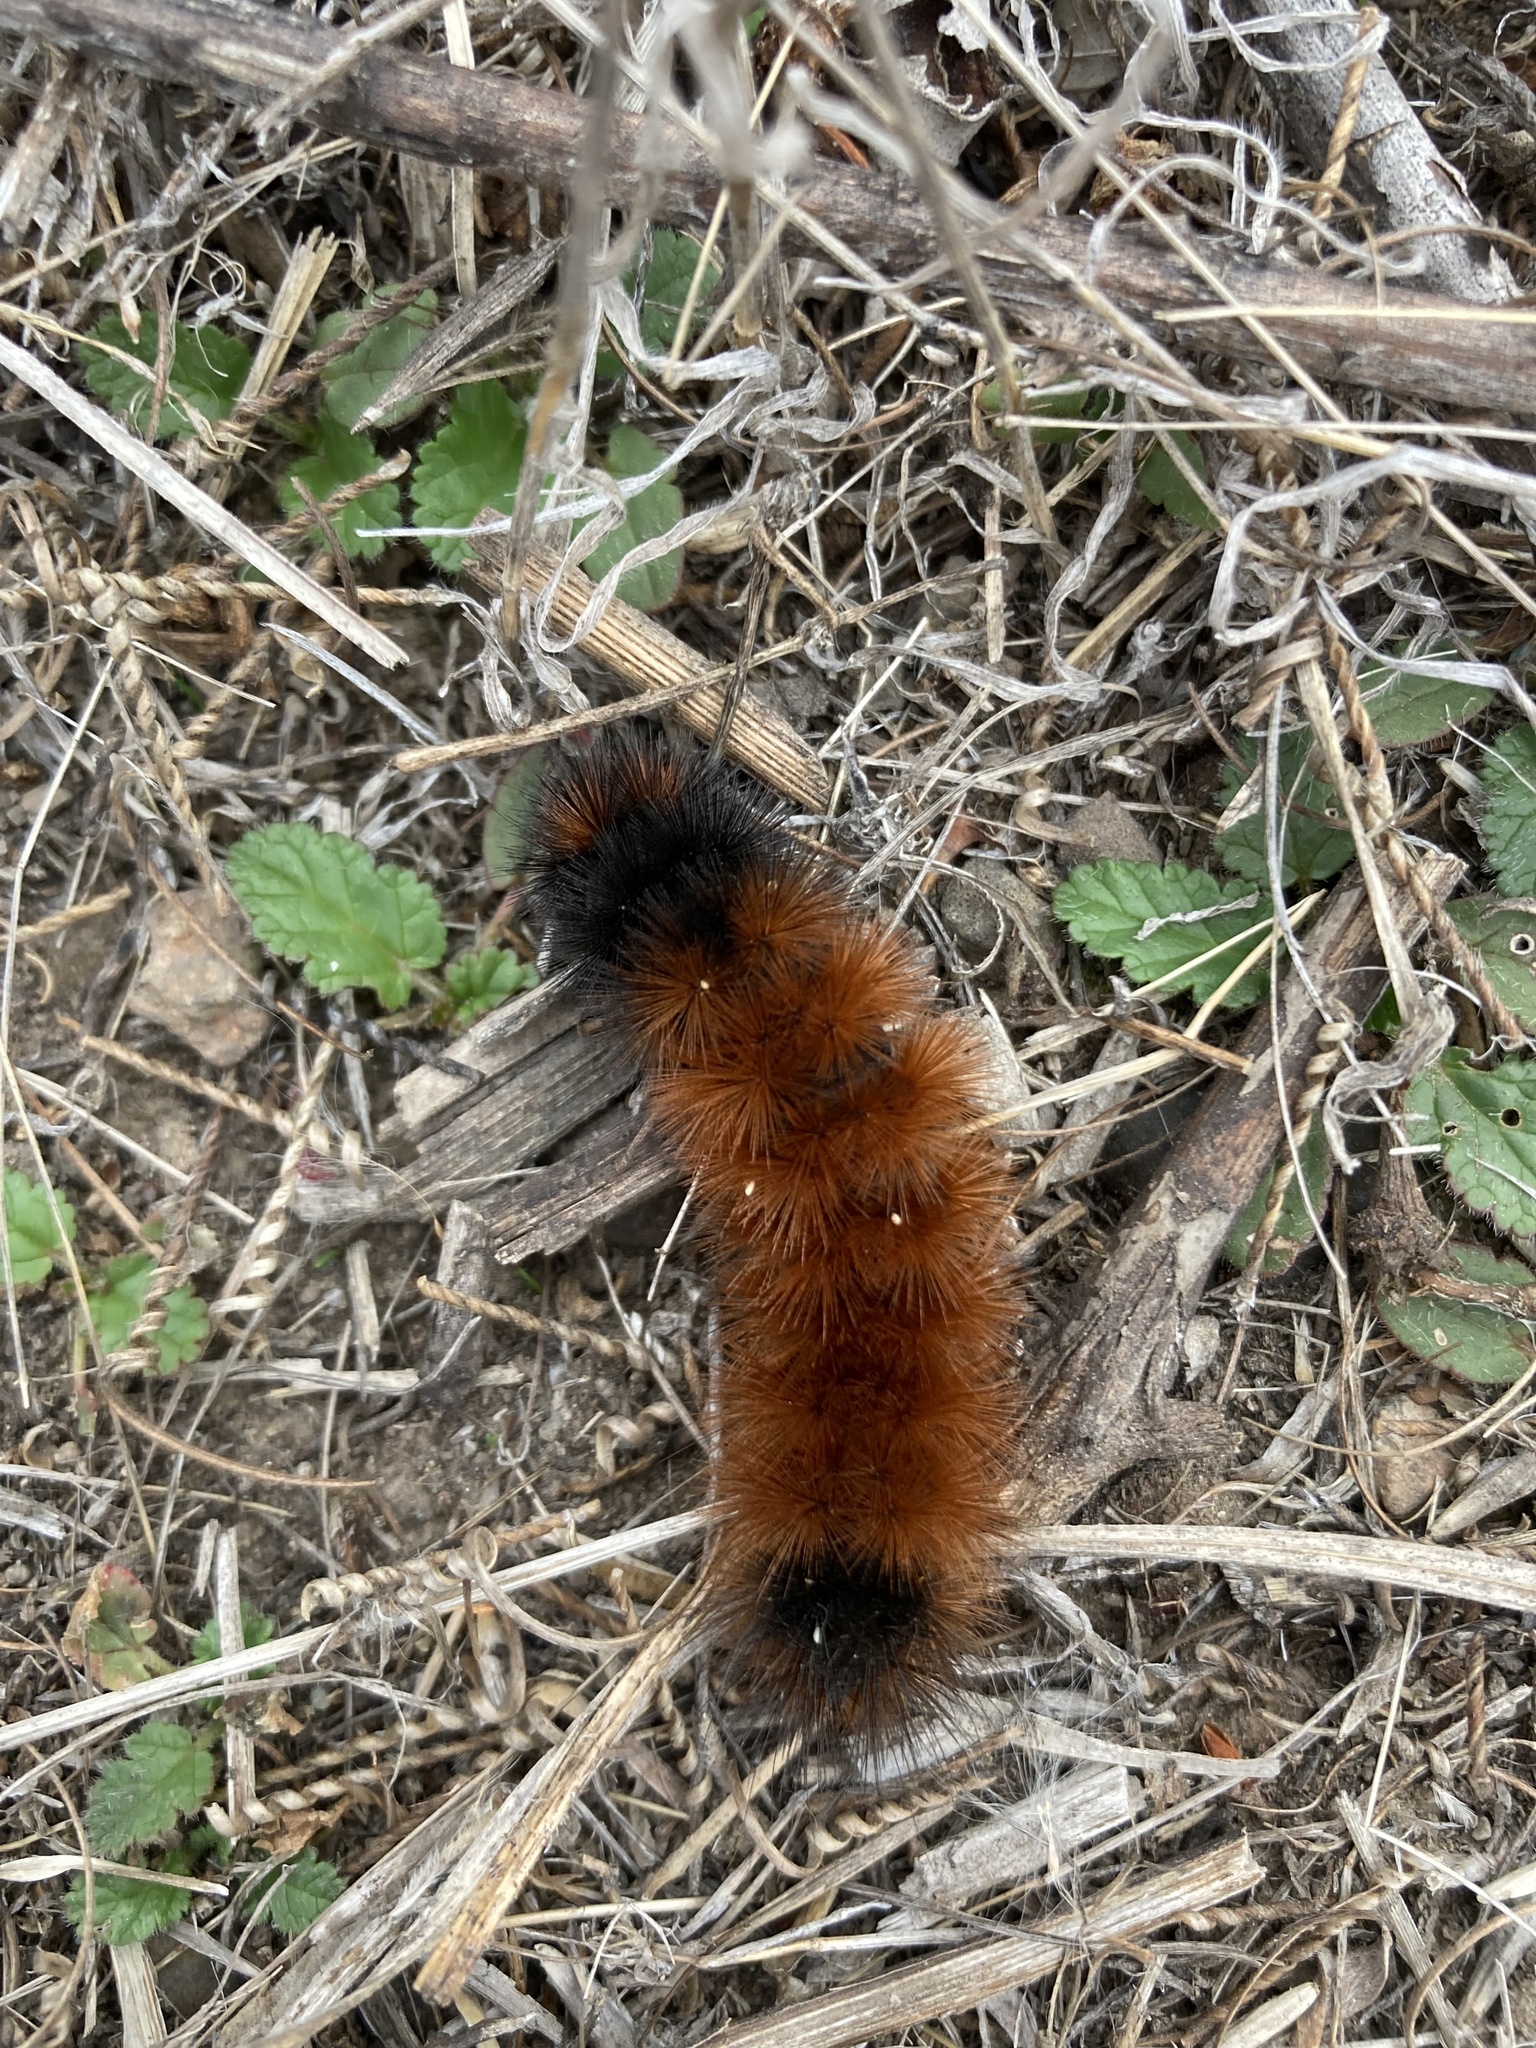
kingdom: Animalia
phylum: Arthropoda
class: Insecta
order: Lepidoptera
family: Erebidae
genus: Pyrrharctia
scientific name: Pyrrharctia isabella
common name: Isabella tiger moth
